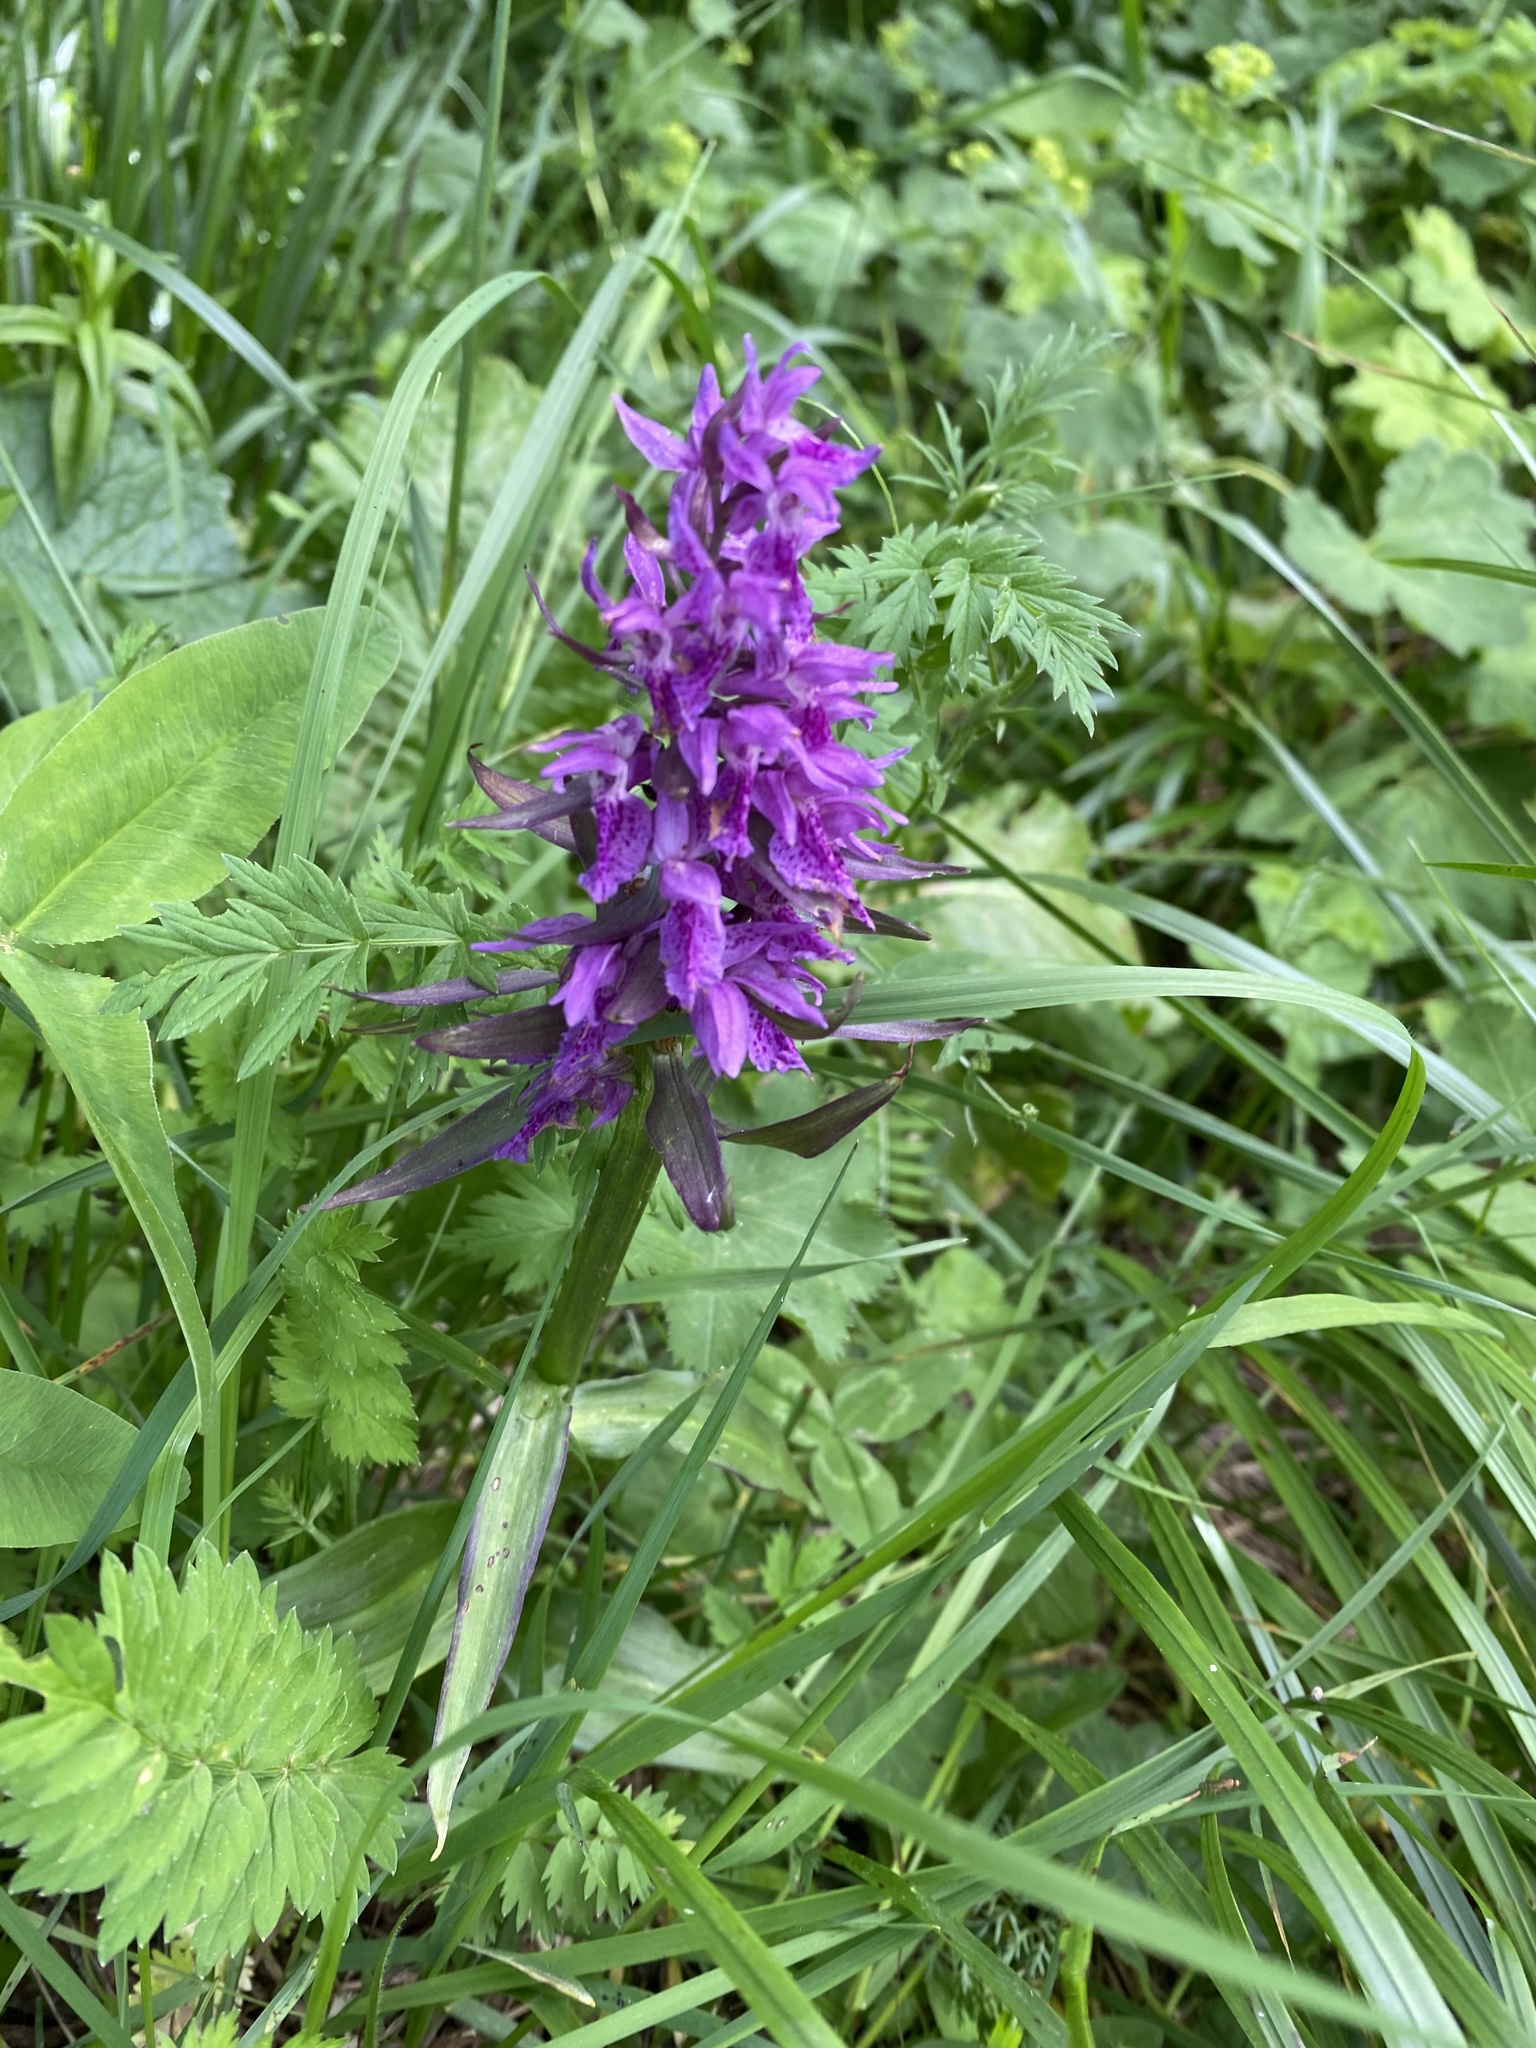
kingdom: Plantae
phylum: Tracheophyta
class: Liliopsida
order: Asparagales
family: Orchidaceae
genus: Dactylorhiza
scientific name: Dactylorhiza euxina
